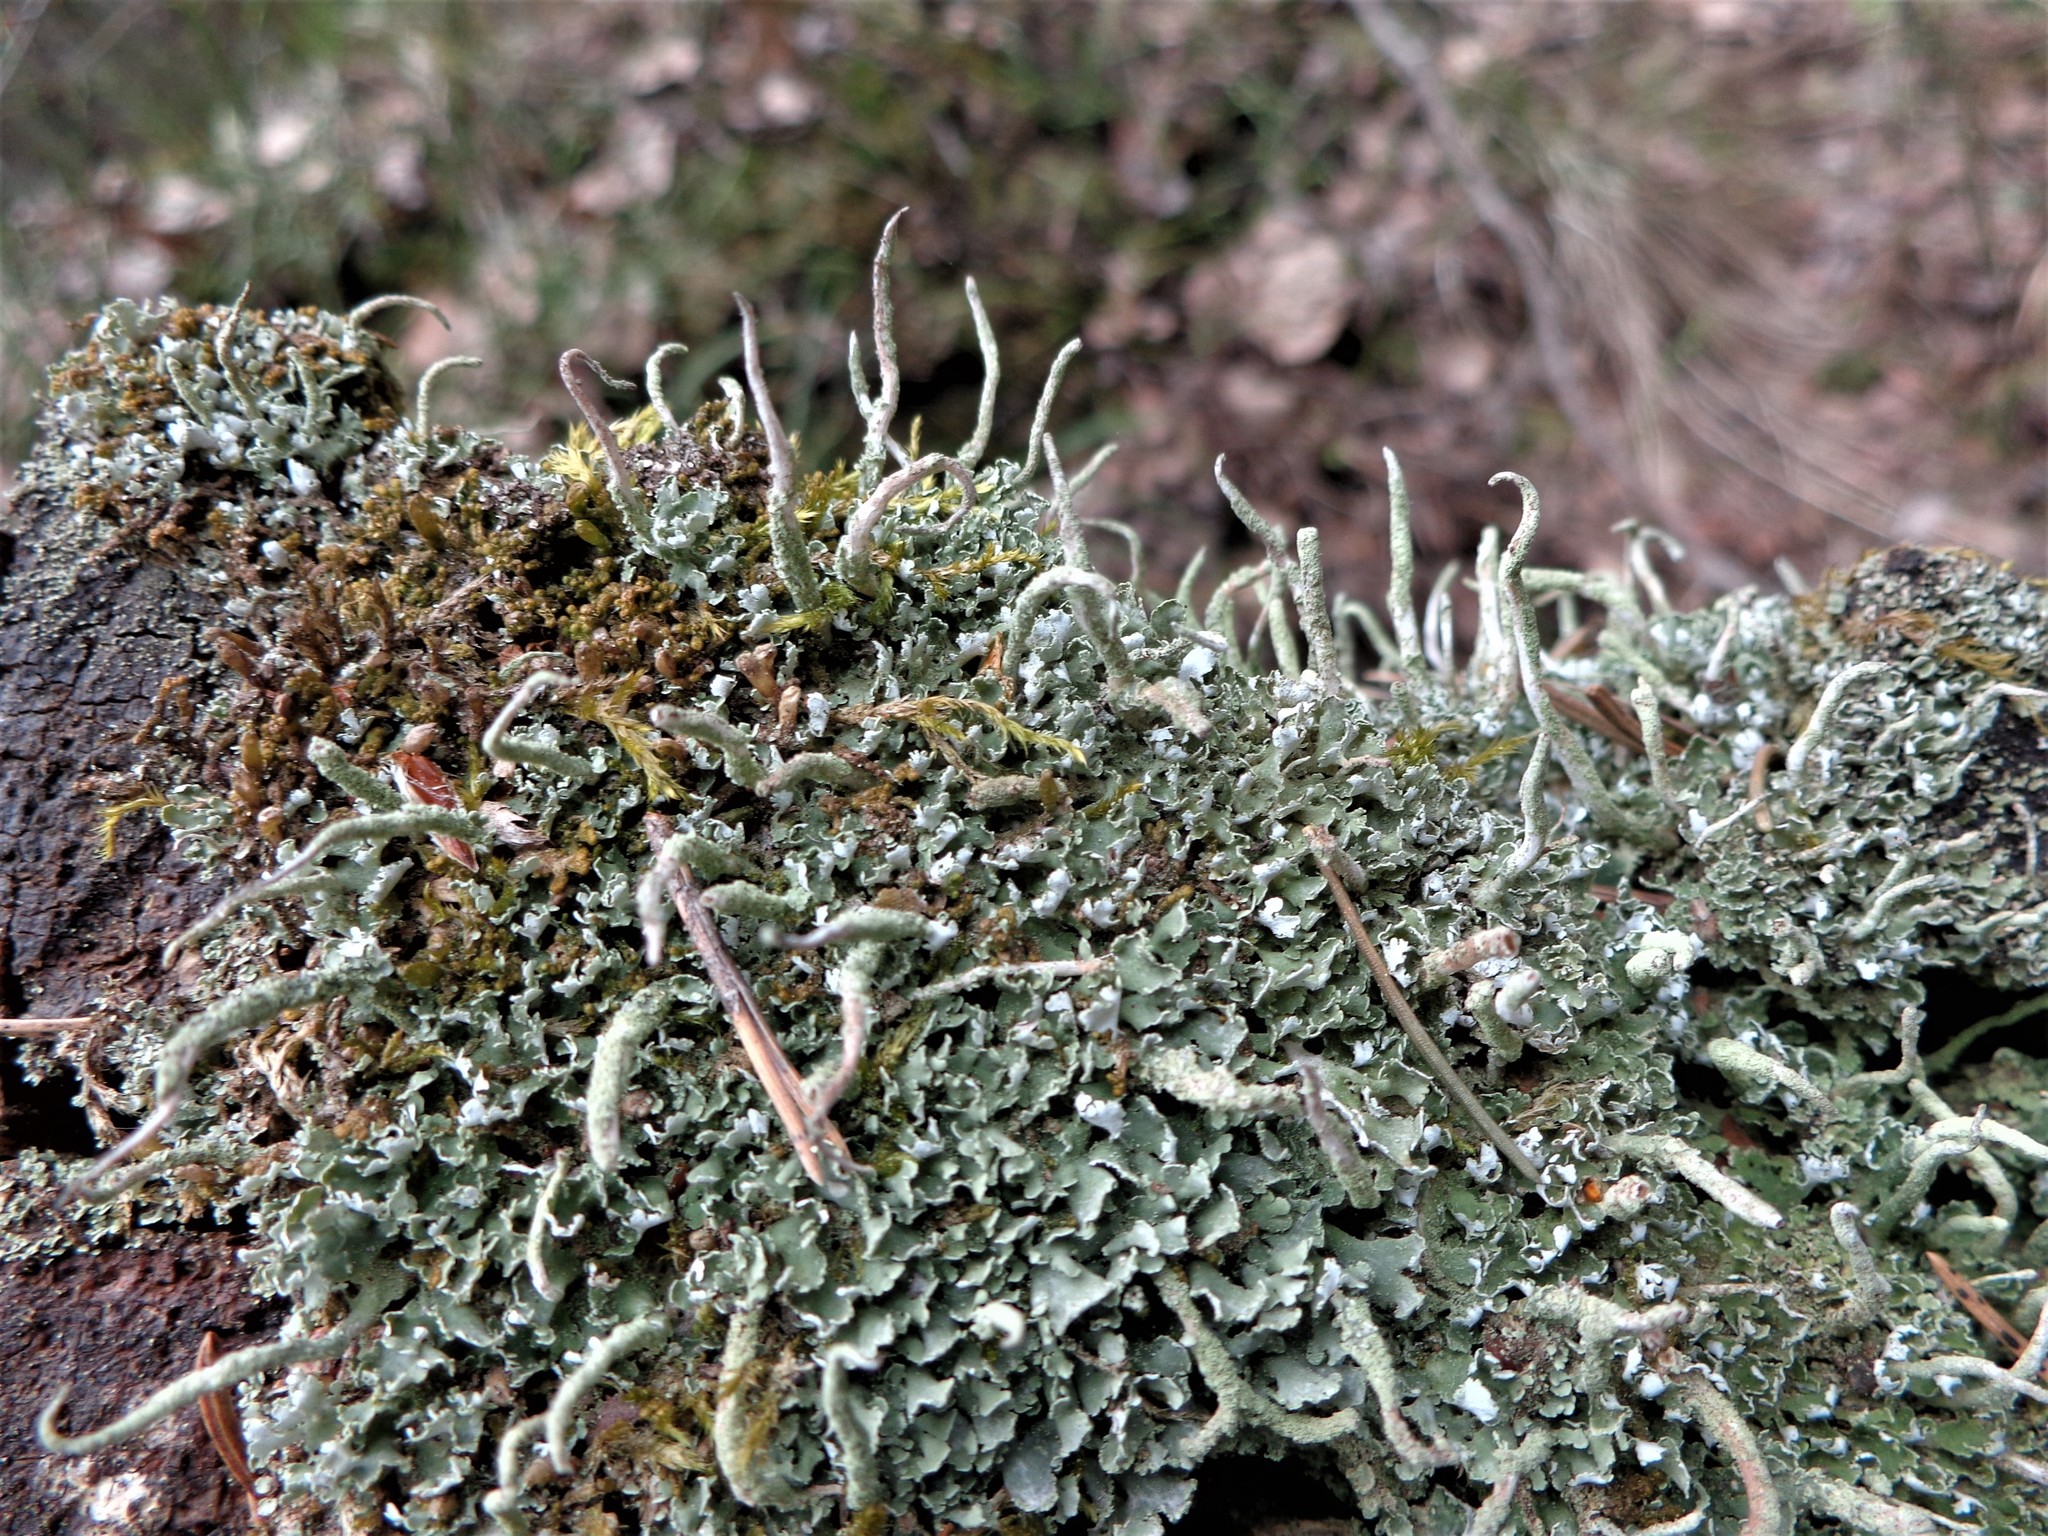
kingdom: Fungi
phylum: Ascomycota
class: Lecanoromycetes
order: Lecanorales
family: Cladoniaceae
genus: Cladonia
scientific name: Cladonia coniocraea
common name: Common powderhorn
